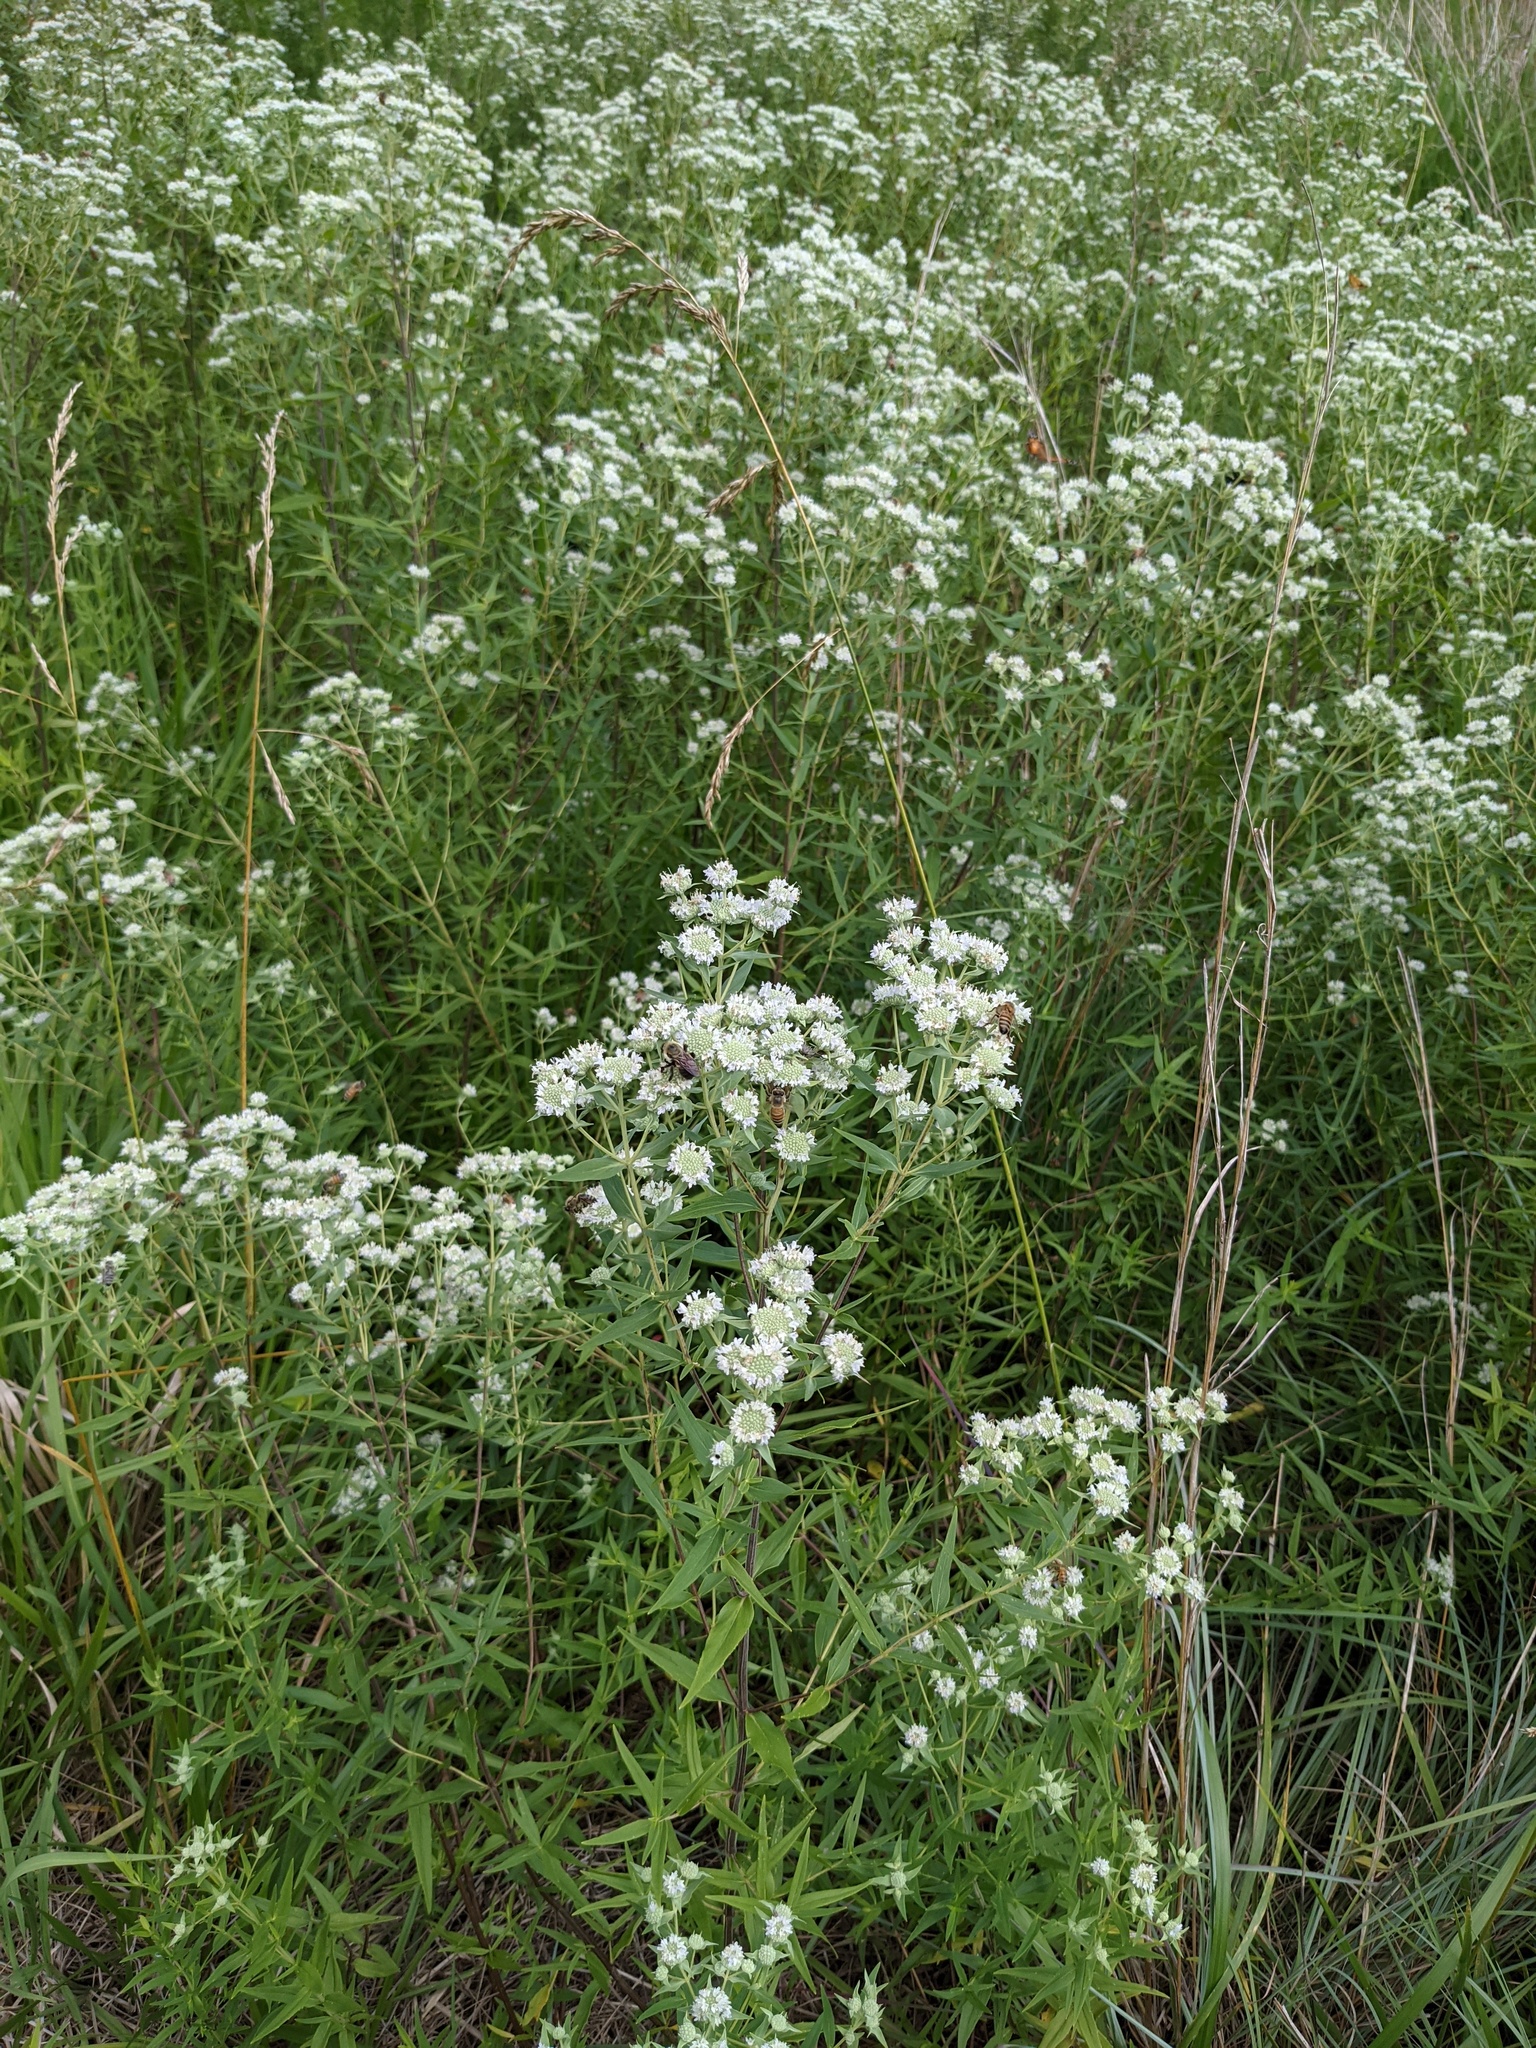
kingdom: Plantae
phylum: Tracheophyta
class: Magnoliopsida
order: Lamiales
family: Lamiaceae
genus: Pycnanthemum
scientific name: Pycnanthemum tenuifolium
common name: Narrow-leaf mountain-mint
